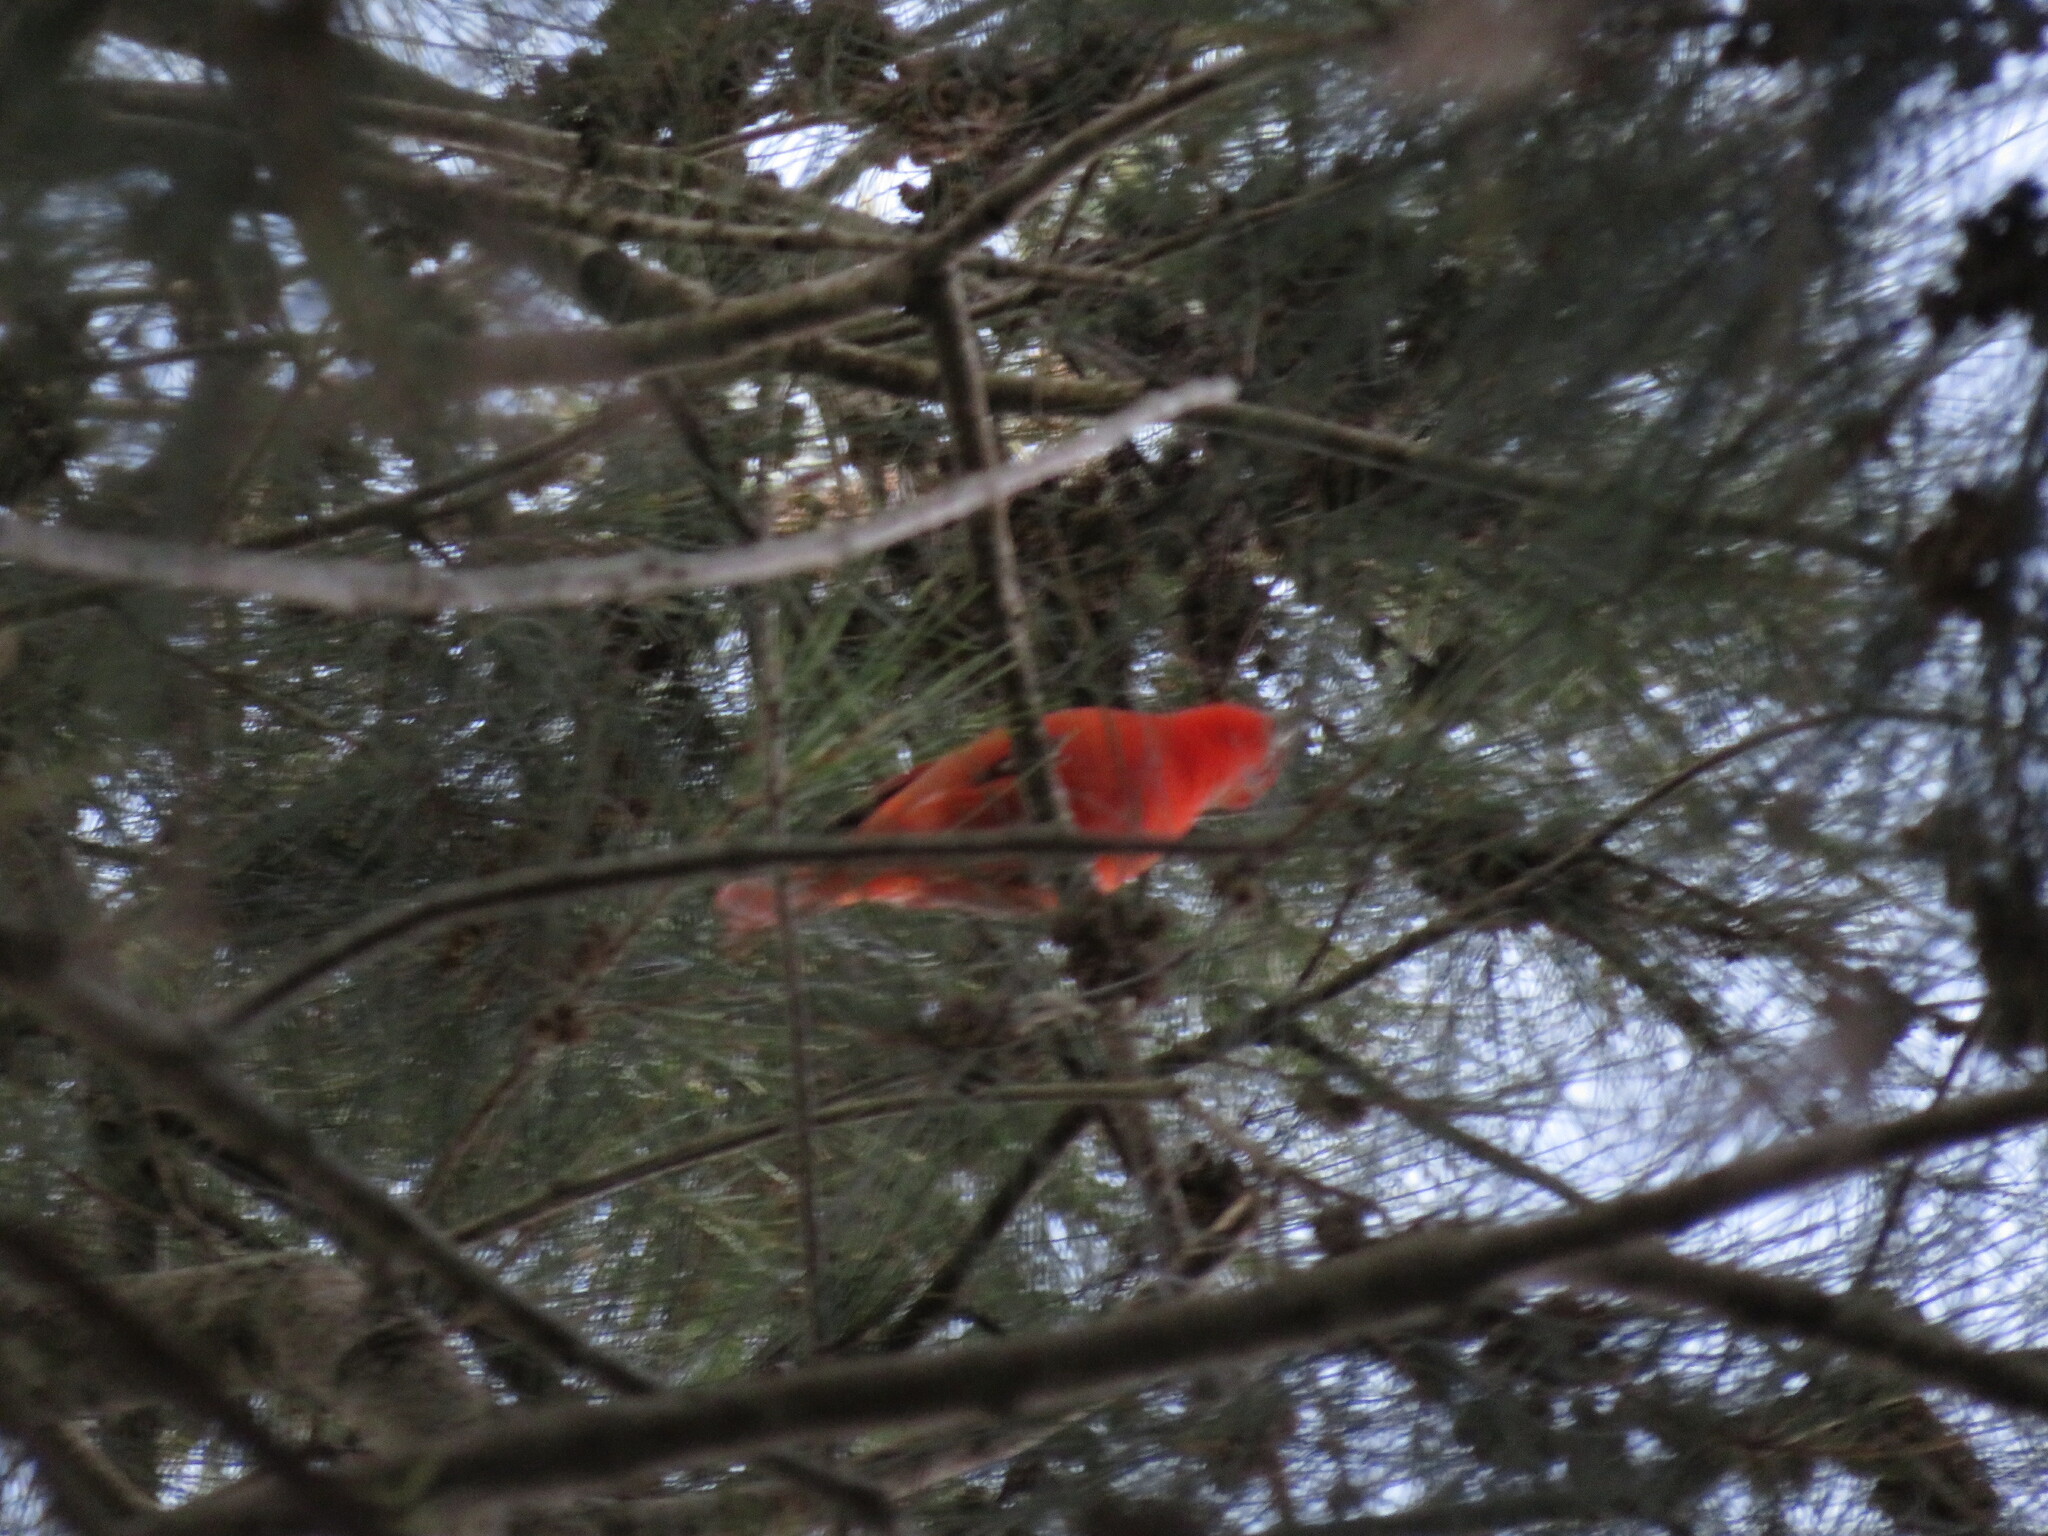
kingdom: Animalia
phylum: Chordata
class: Aves
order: Passeriformes
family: Cardinalidae
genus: Piranga
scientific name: Piranga flava
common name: Red tanager
